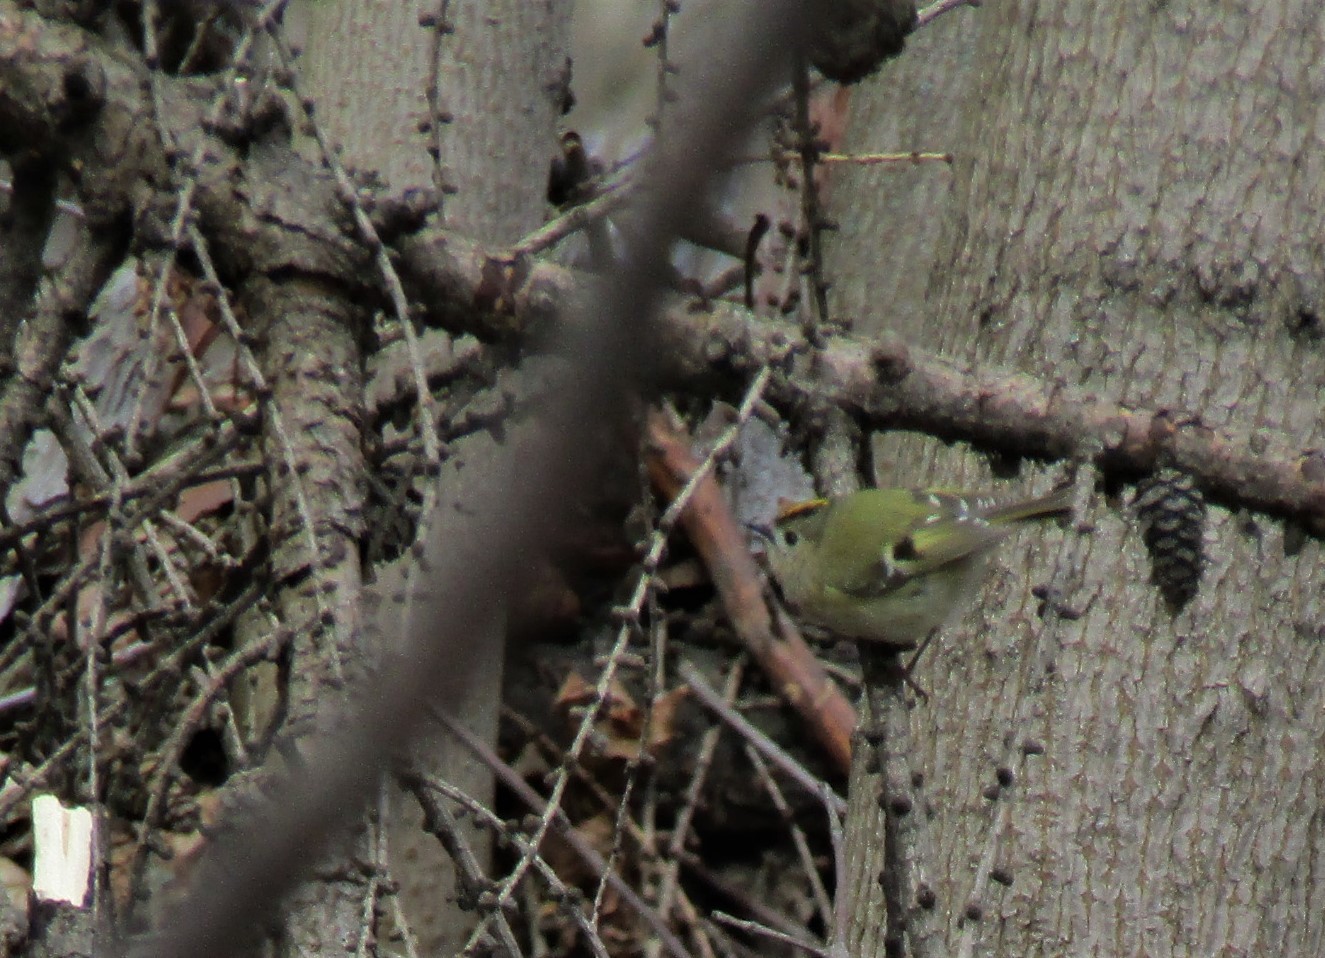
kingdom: Animalia
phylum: Chordata
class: Aves
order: Passeriformes
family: Regulidae
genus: Regulus
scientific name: Regulus regulus
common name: Goldcrest
